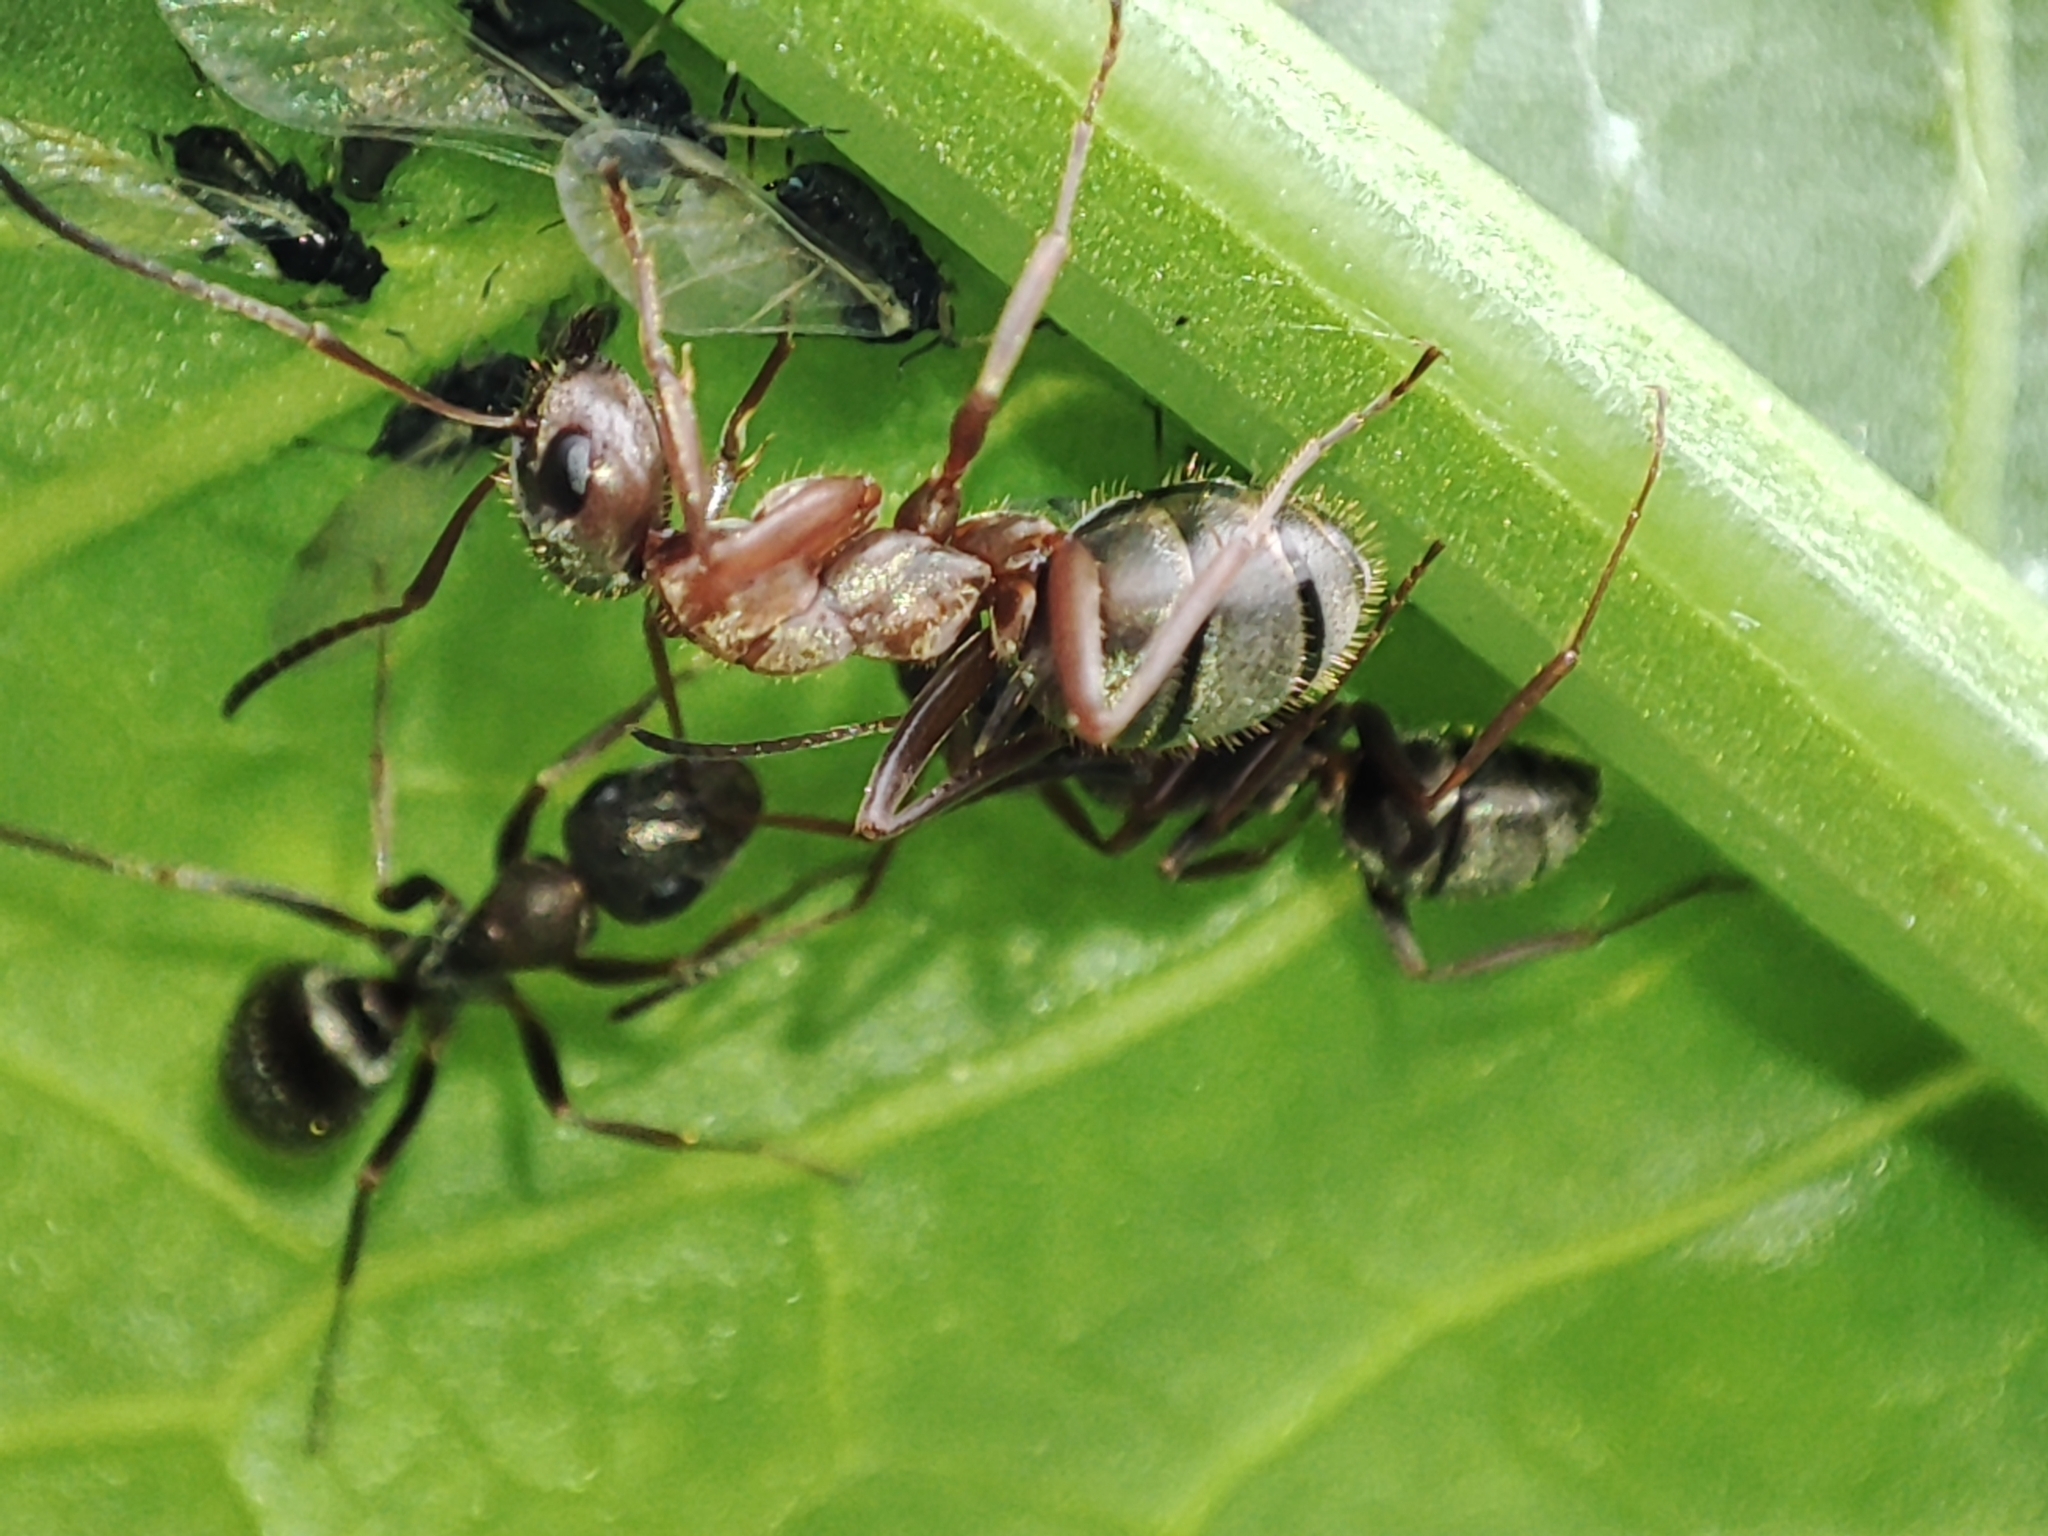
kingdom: Animalia
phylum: Arthropoda
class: Insecta
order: Hymenoptera
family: Formicidae
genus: Formica
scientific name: Formica cinerea
